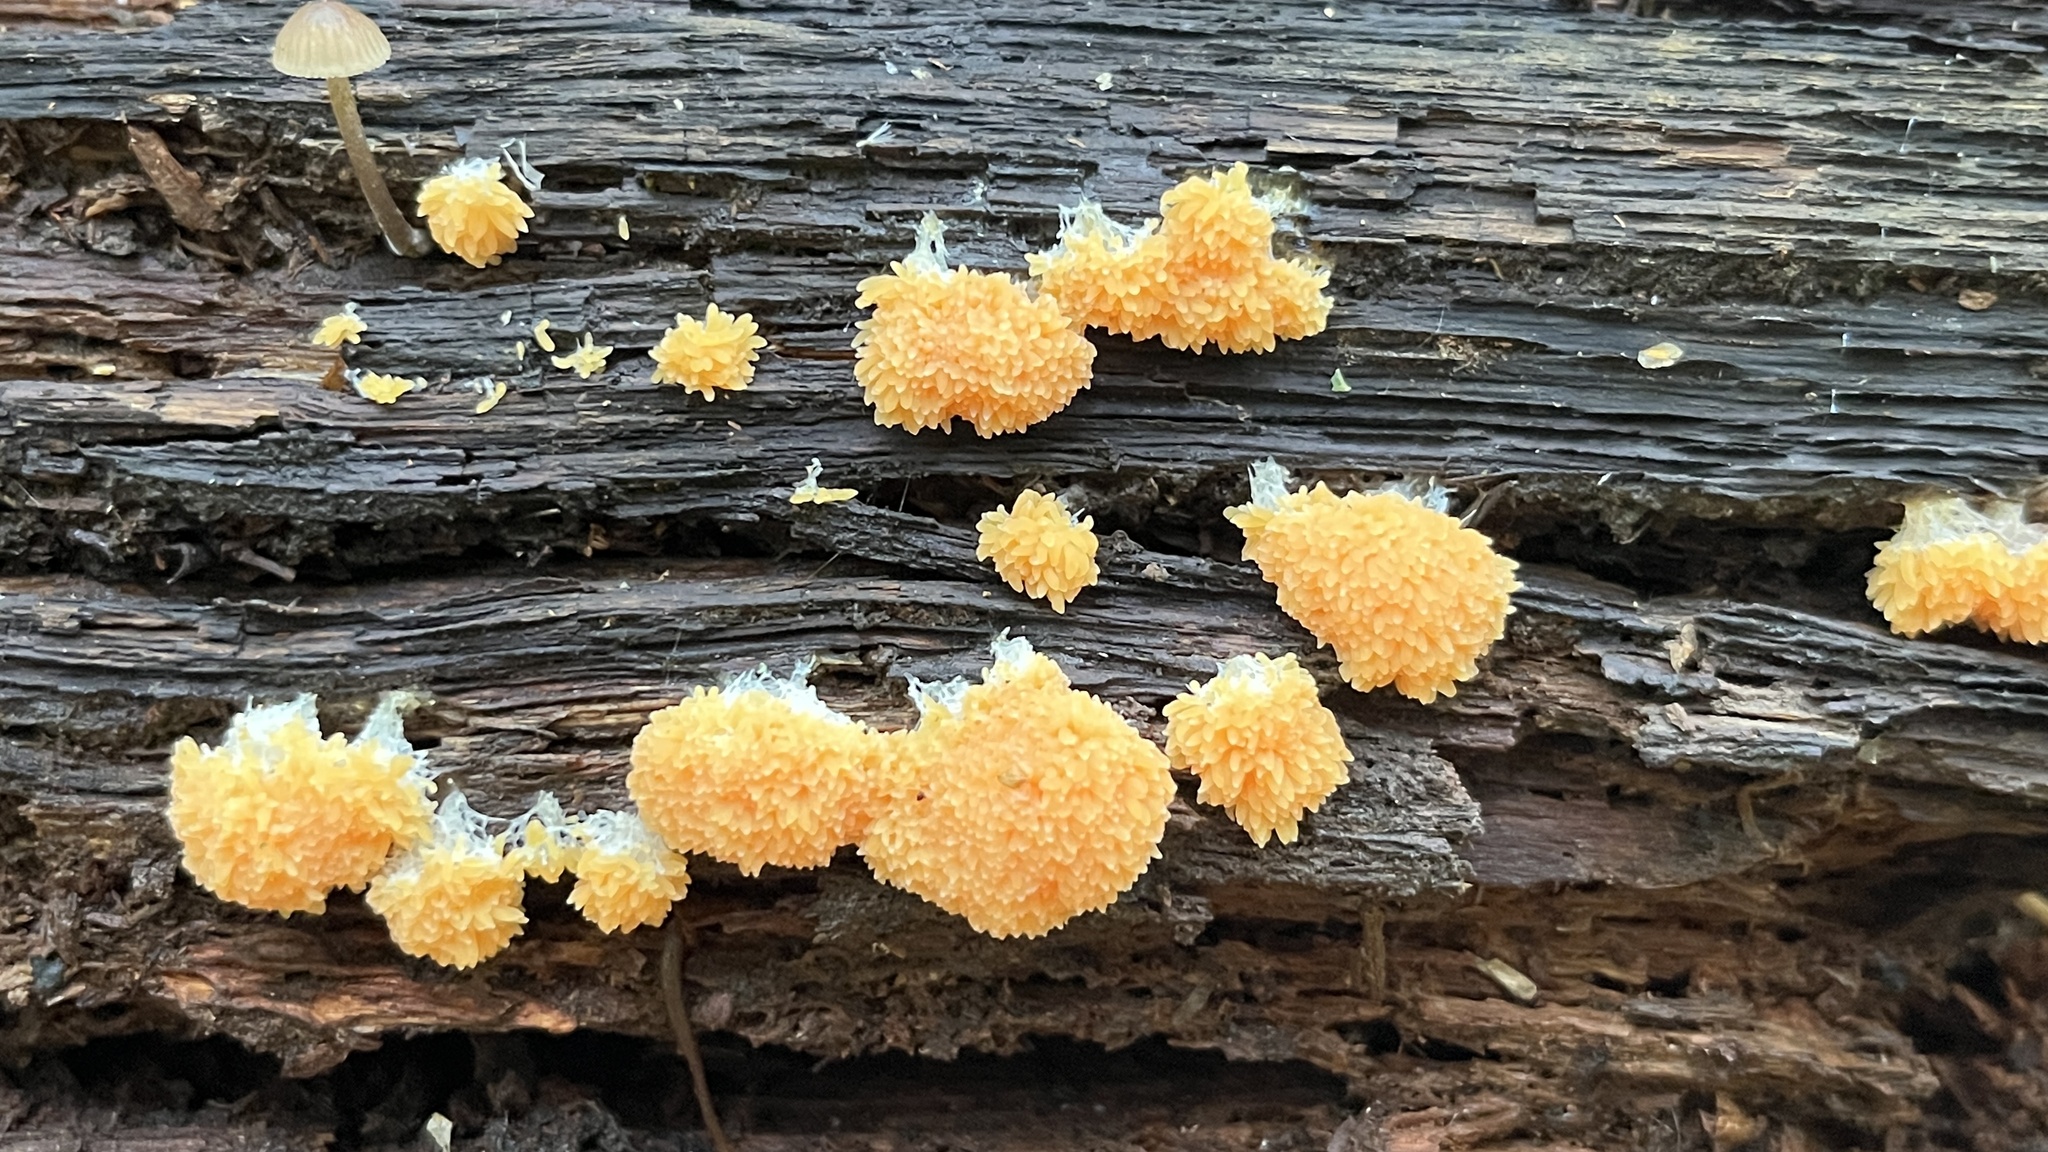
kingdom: Protozoa
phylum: Mycetozoa
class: Myxomycetes
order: Cribrariales
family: Tubiferaceae
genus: Tubifera
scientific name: Tubifera ferruginosa
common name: Red raspberry slime mold
